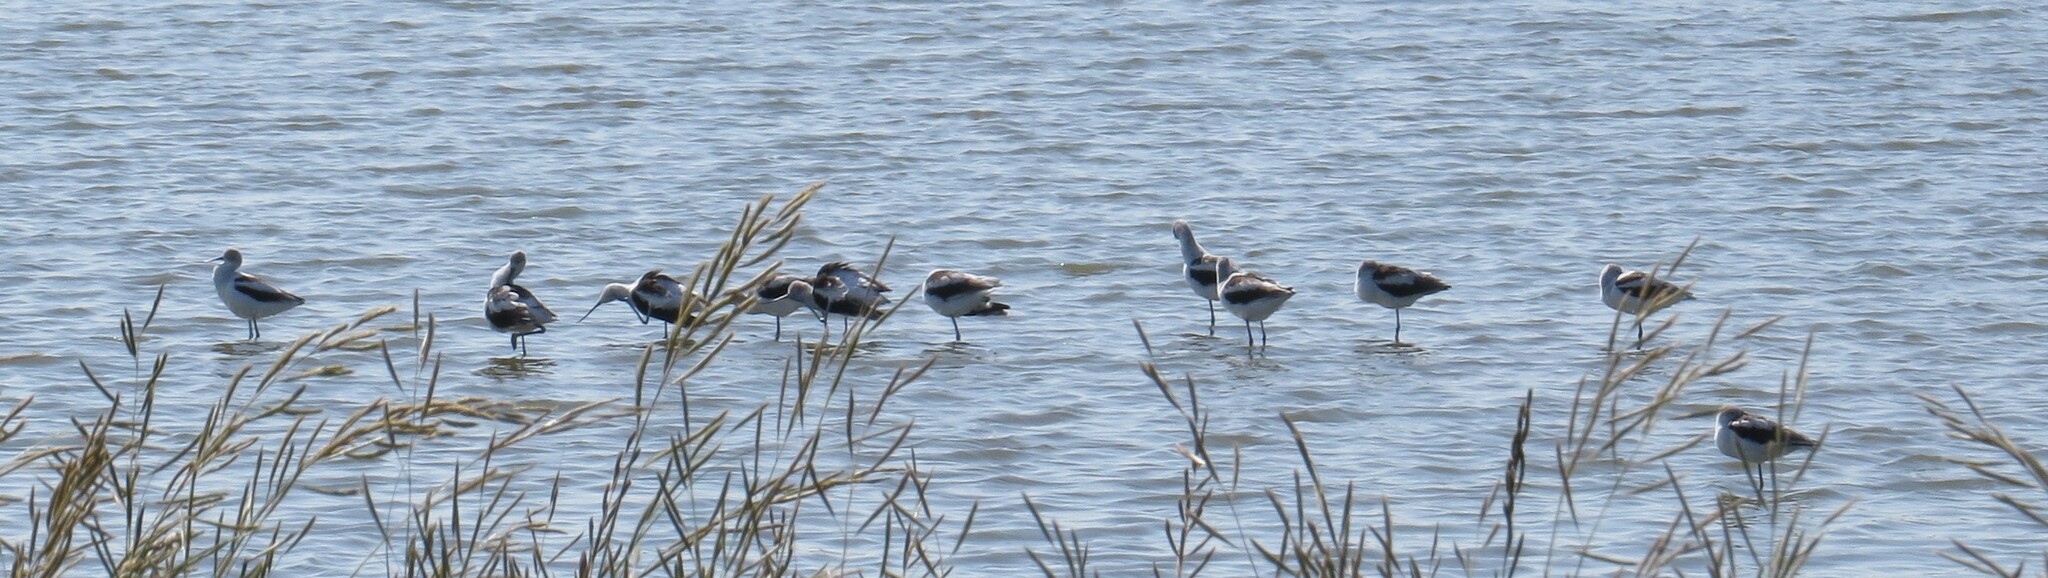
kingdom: Animalia
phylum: Chordata
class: Aves
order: Charadriiformes
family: Recurvirostridae
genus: Recurvirostra
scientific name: Recurvirostra americana
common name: American avocet
